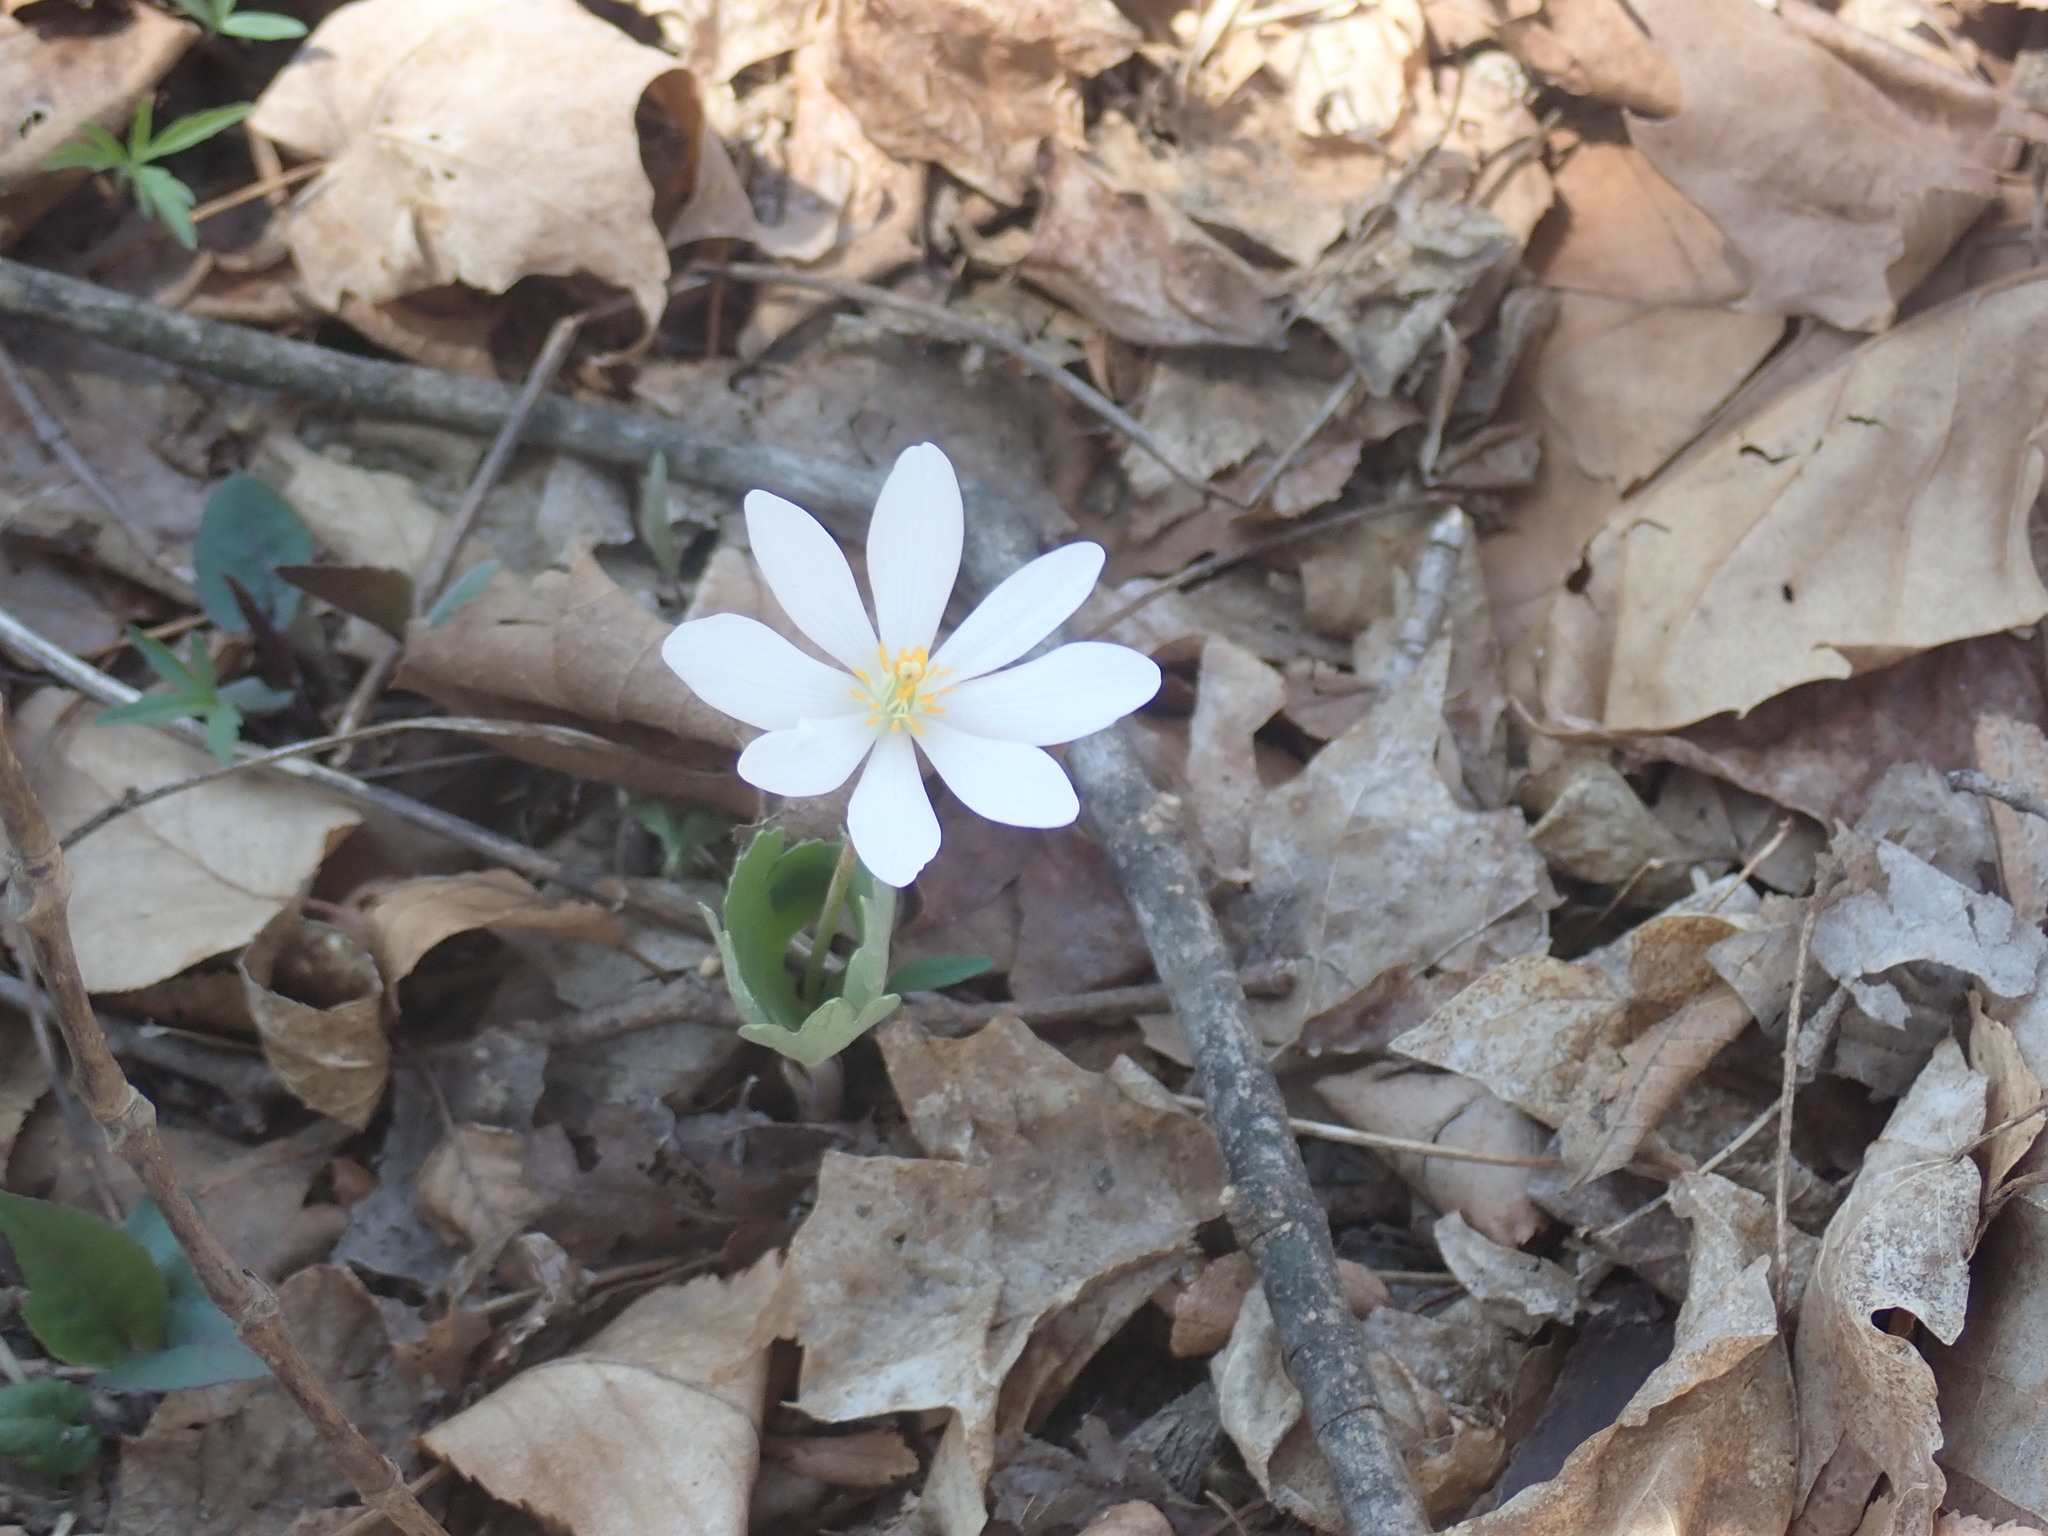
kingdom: Plantae
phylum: Tracheophyta
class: Magnoliopsida
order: Ranunculales
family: Papaveraceae
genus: Sanguinaria
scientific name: Sanguinaria canadensis
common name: Bloodroot
